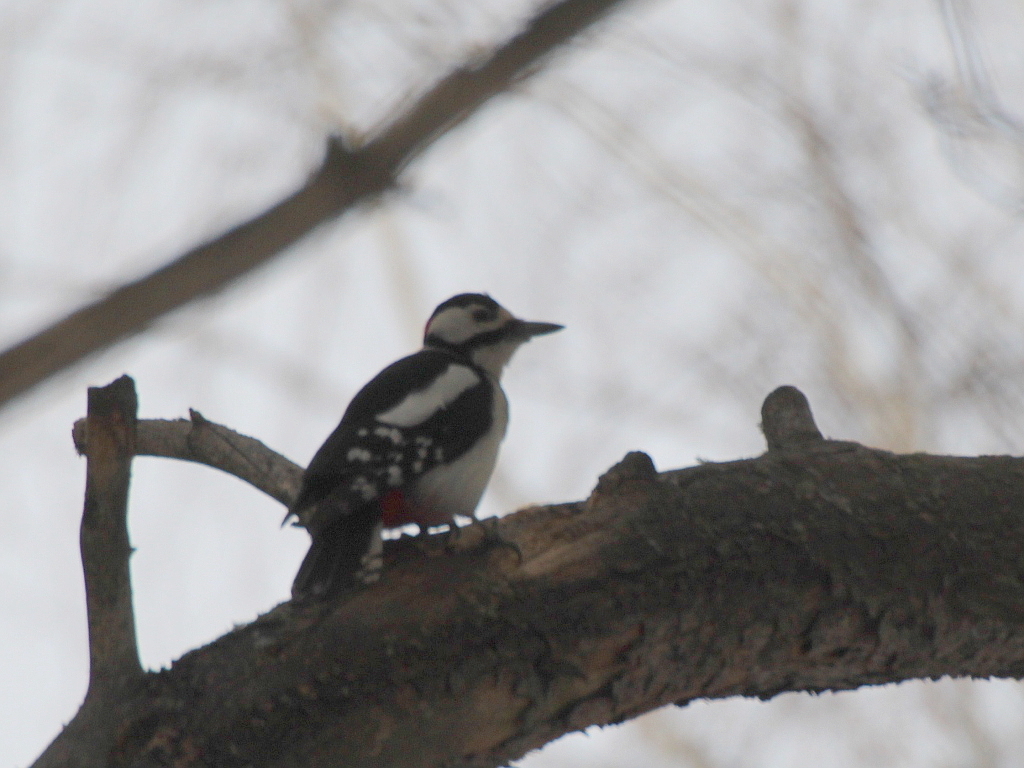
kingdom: Animalia
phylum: Chordata
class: Aves
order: Piciformes
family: Picidae
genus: Dendrocopos
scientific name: Dendrocopos major
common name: Great spotted woodpecker
